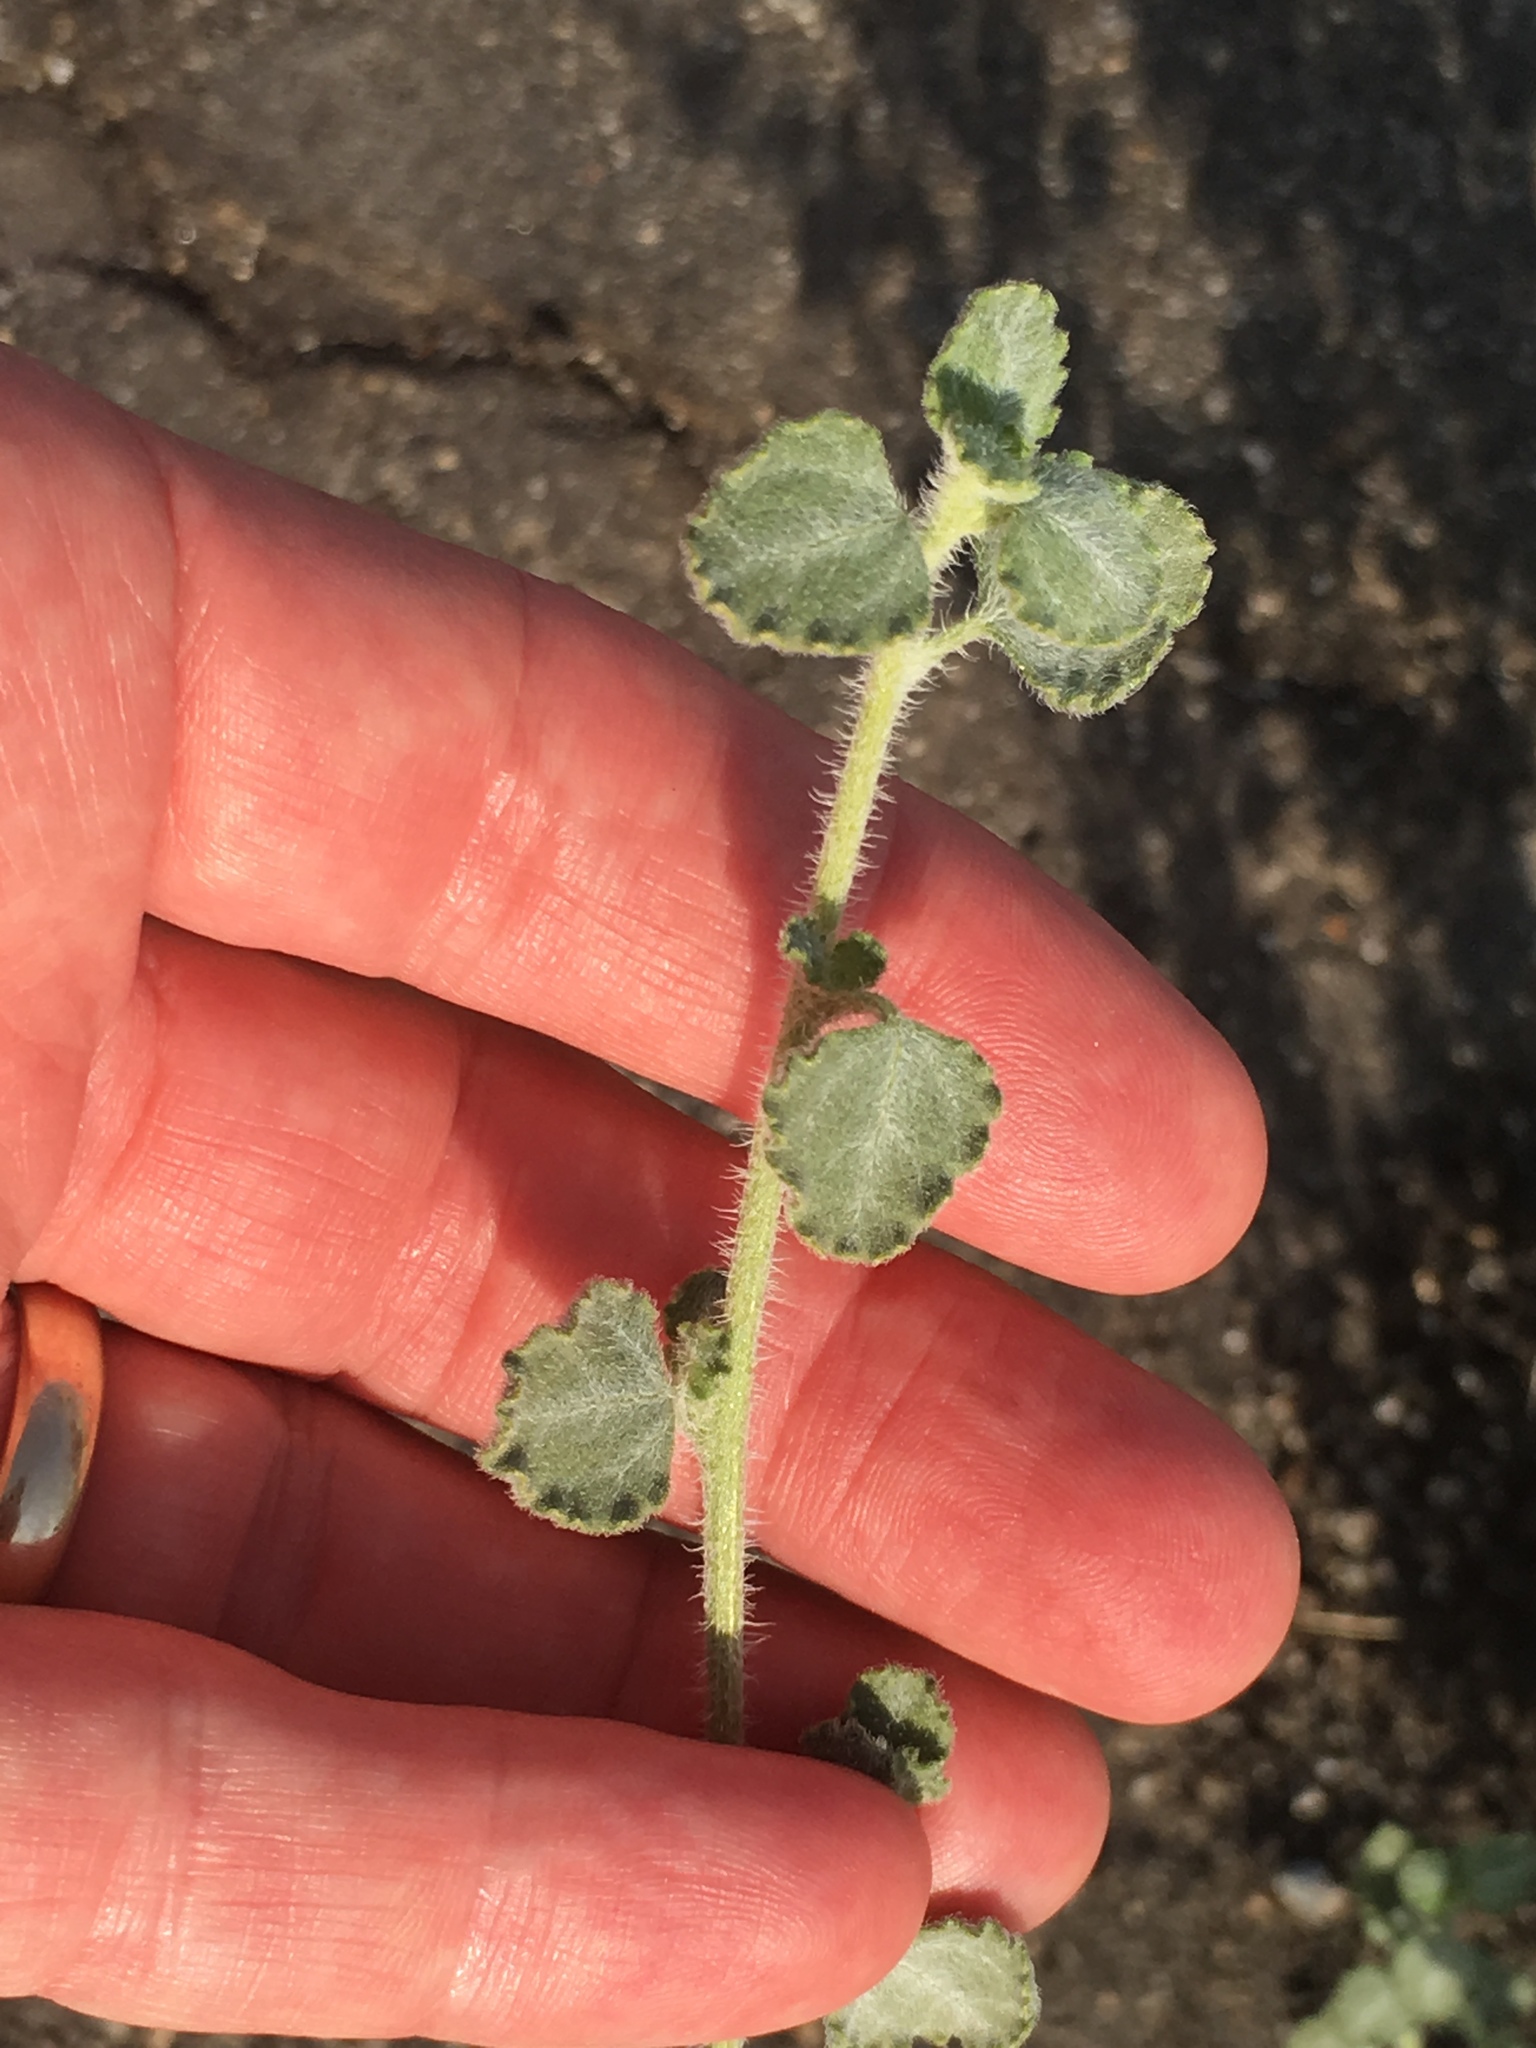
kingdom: Plantae
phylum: Tracheophyta
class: Magnoliopsida
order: Asterales
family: Asteraceae
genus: Dicoria
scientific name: Dicoria canescens
